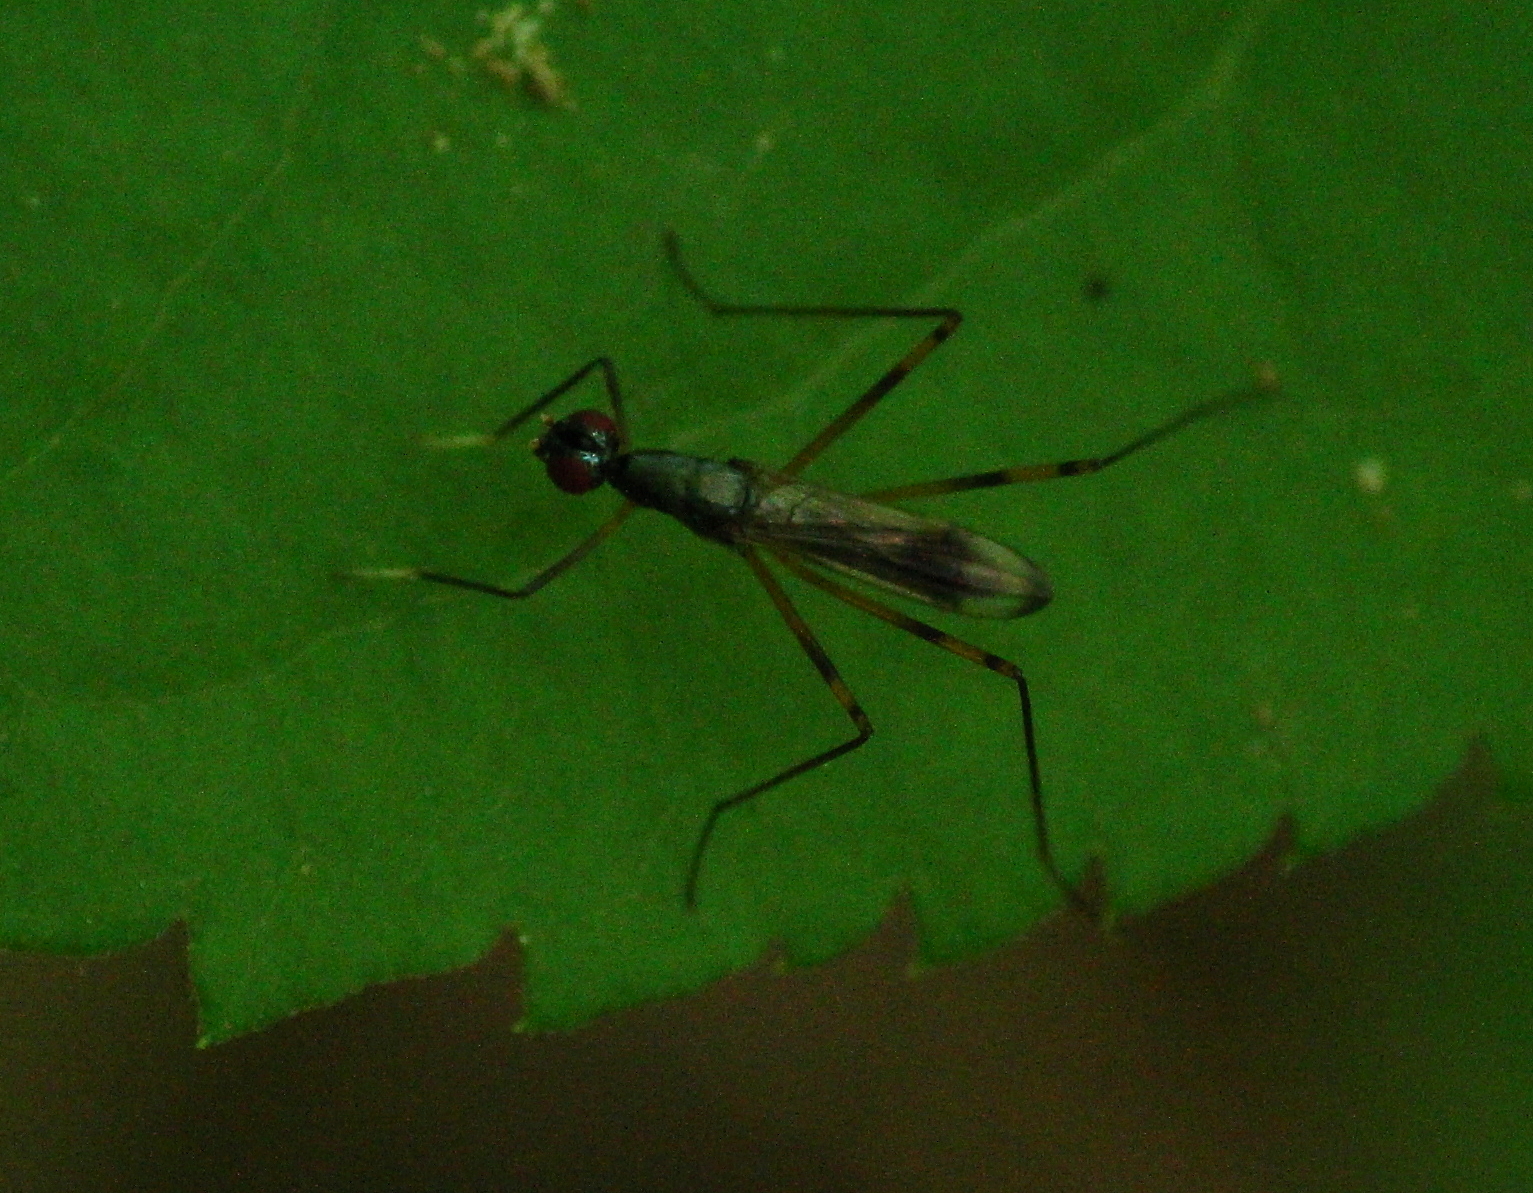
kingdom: Animalia
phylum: Arthropoda
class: Insecta
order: Diptera
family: Micropezidae
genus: Rainieria
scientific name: Rainieria antennaepes
